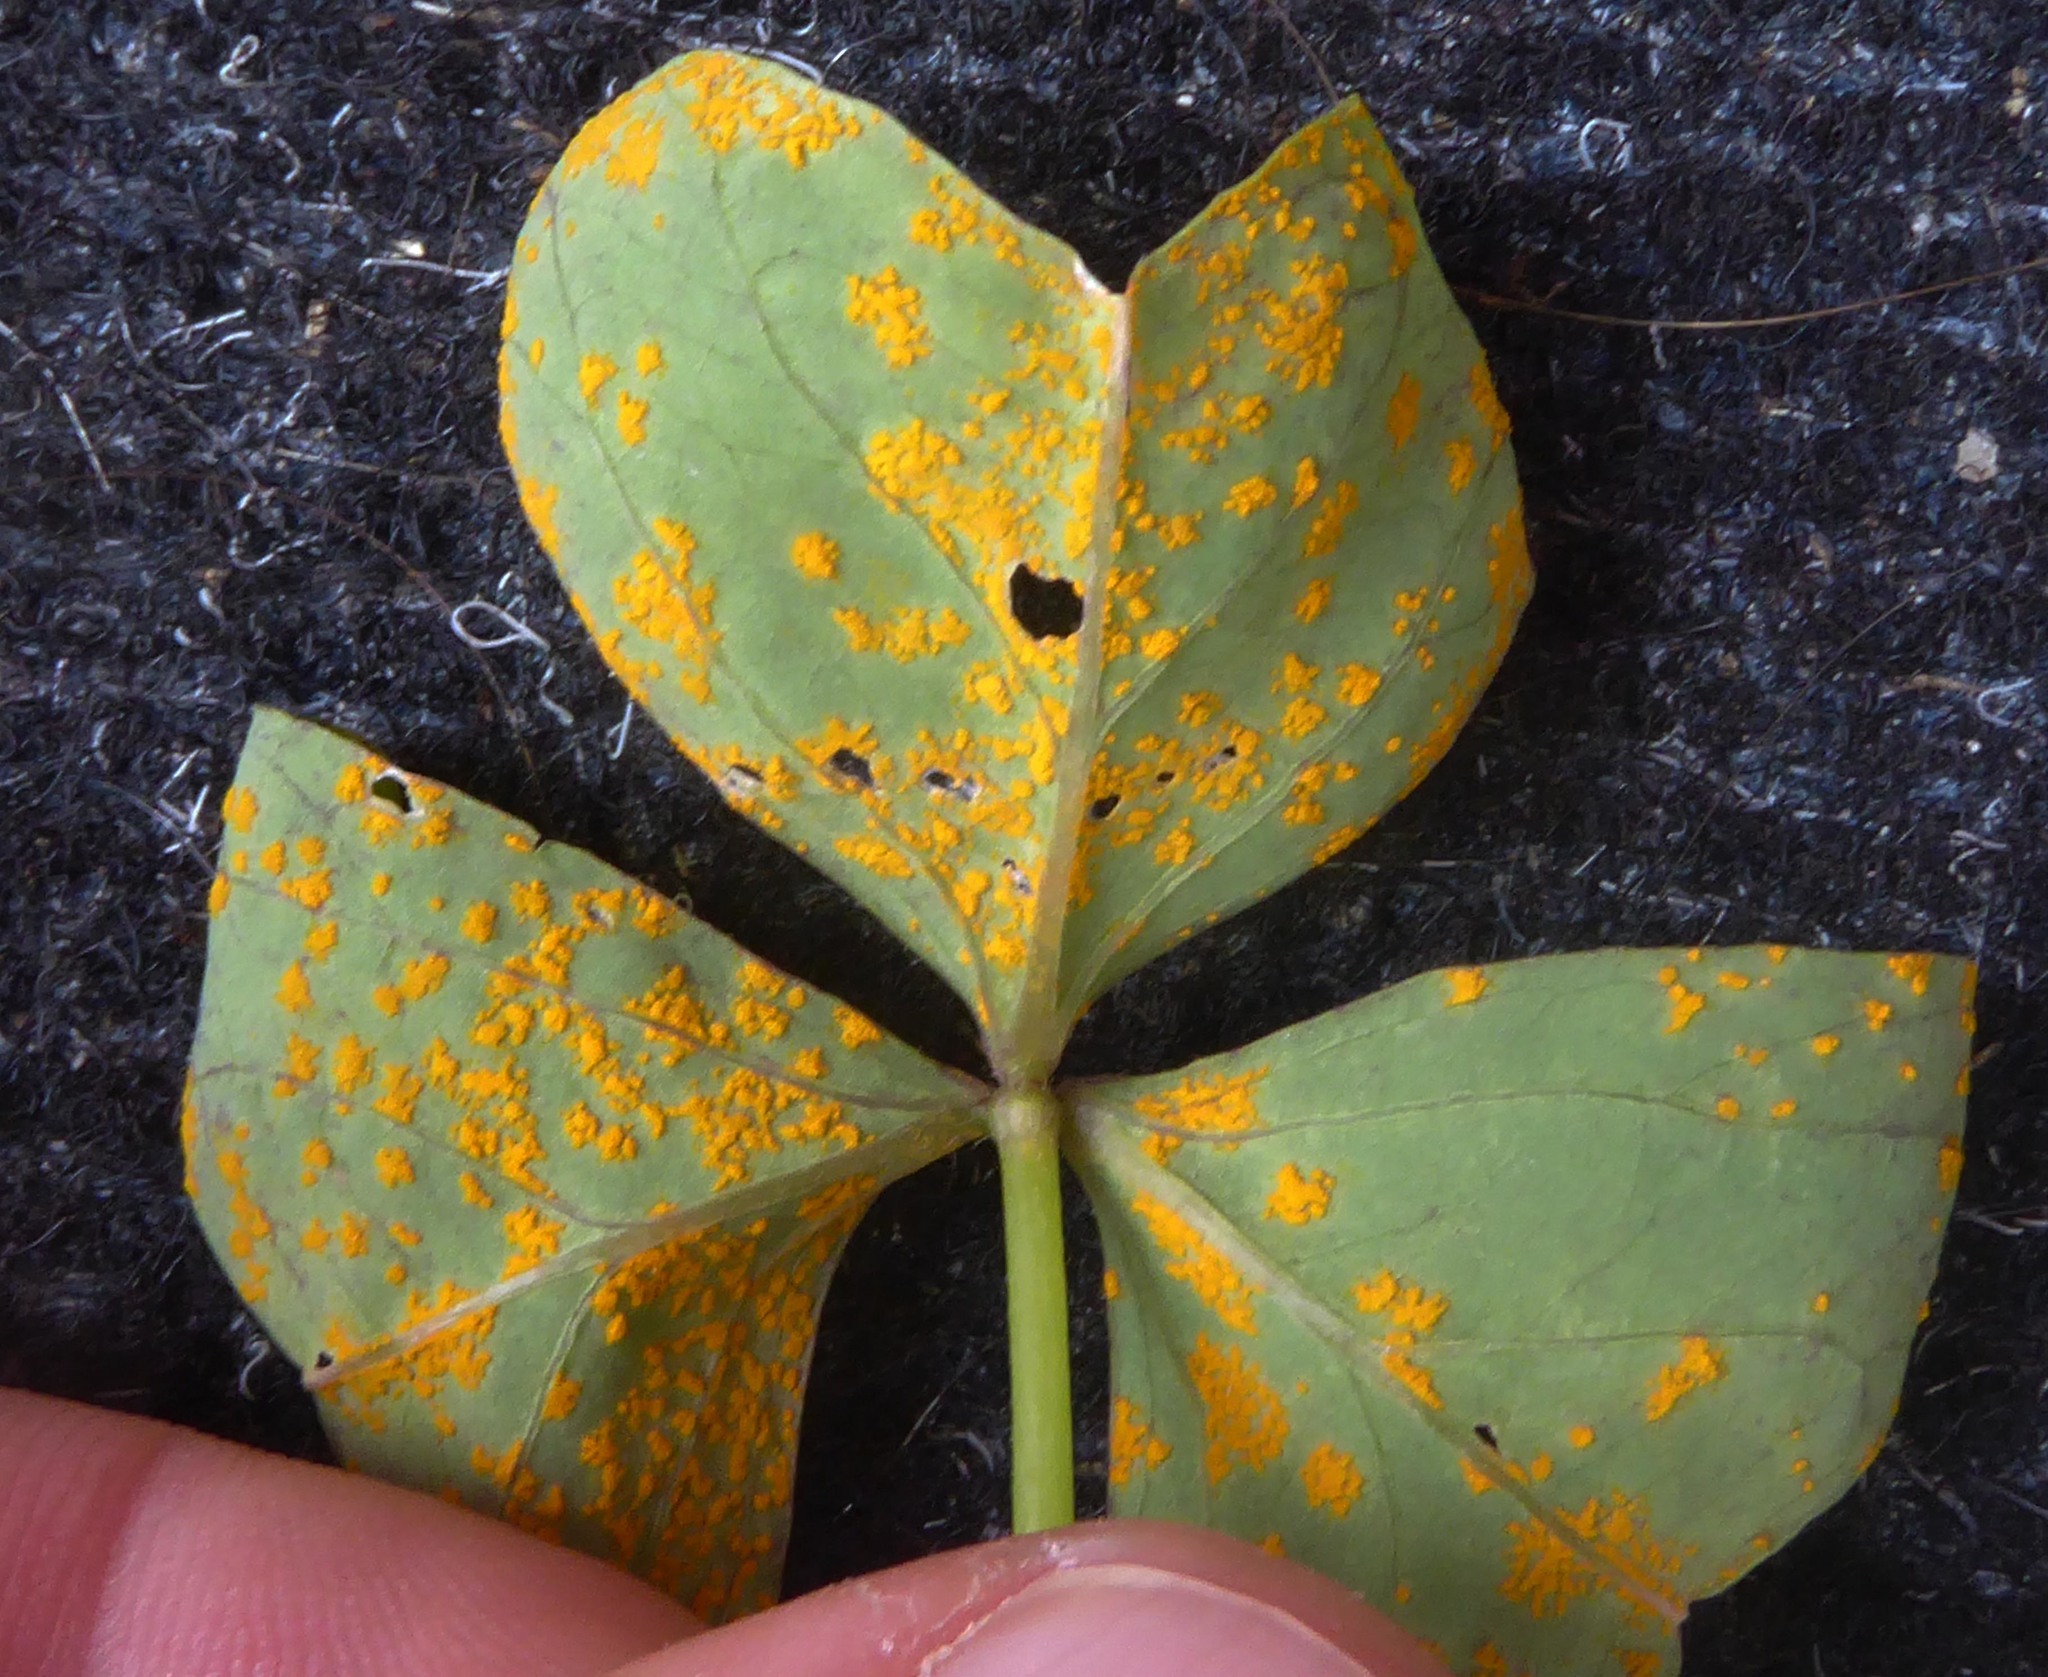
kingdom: Fungi
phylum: Basidiomycota
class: Pucciniomycetes
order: Pucciniales
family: Pucciniaceae
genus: Puccinia
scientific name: Puccinia oxalidis
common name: Oxalis rust
